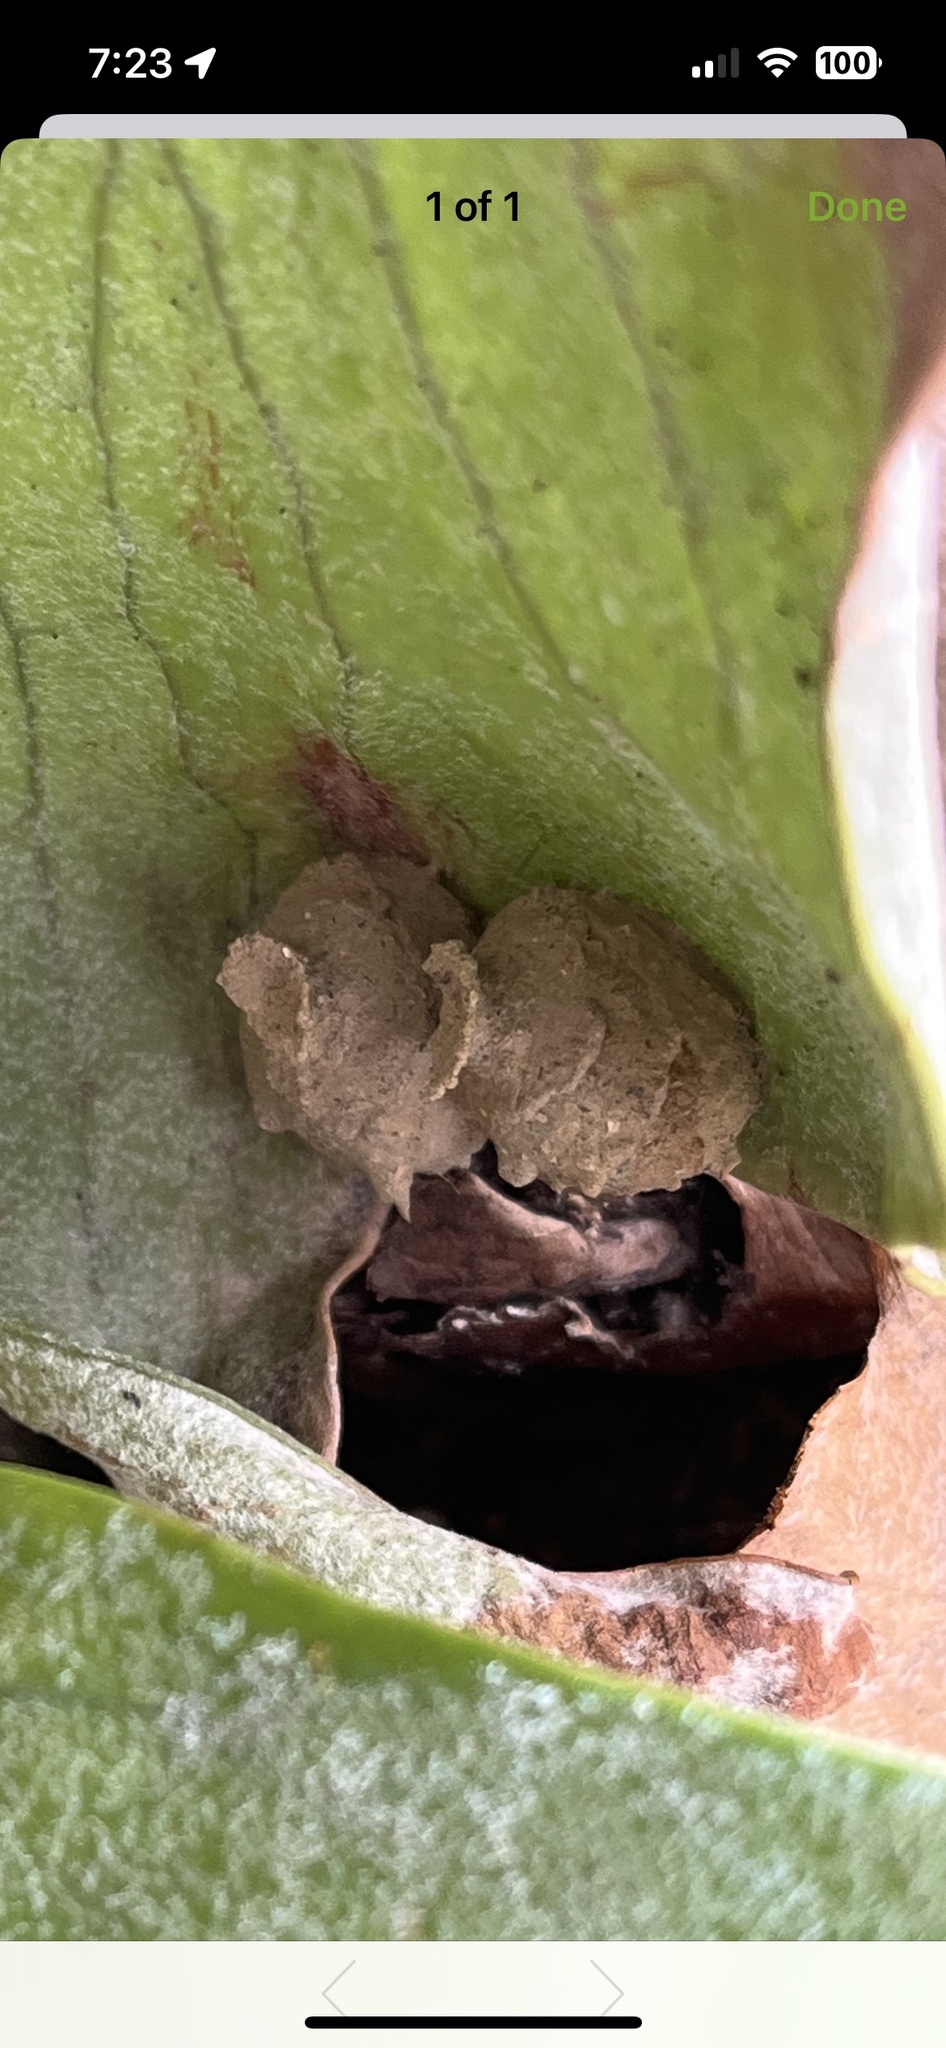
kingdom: Animalia
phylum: Arthropoda
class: Insecta
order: Hymenoptera
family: Vespidae
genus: Eumenes
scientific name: Eumenes
